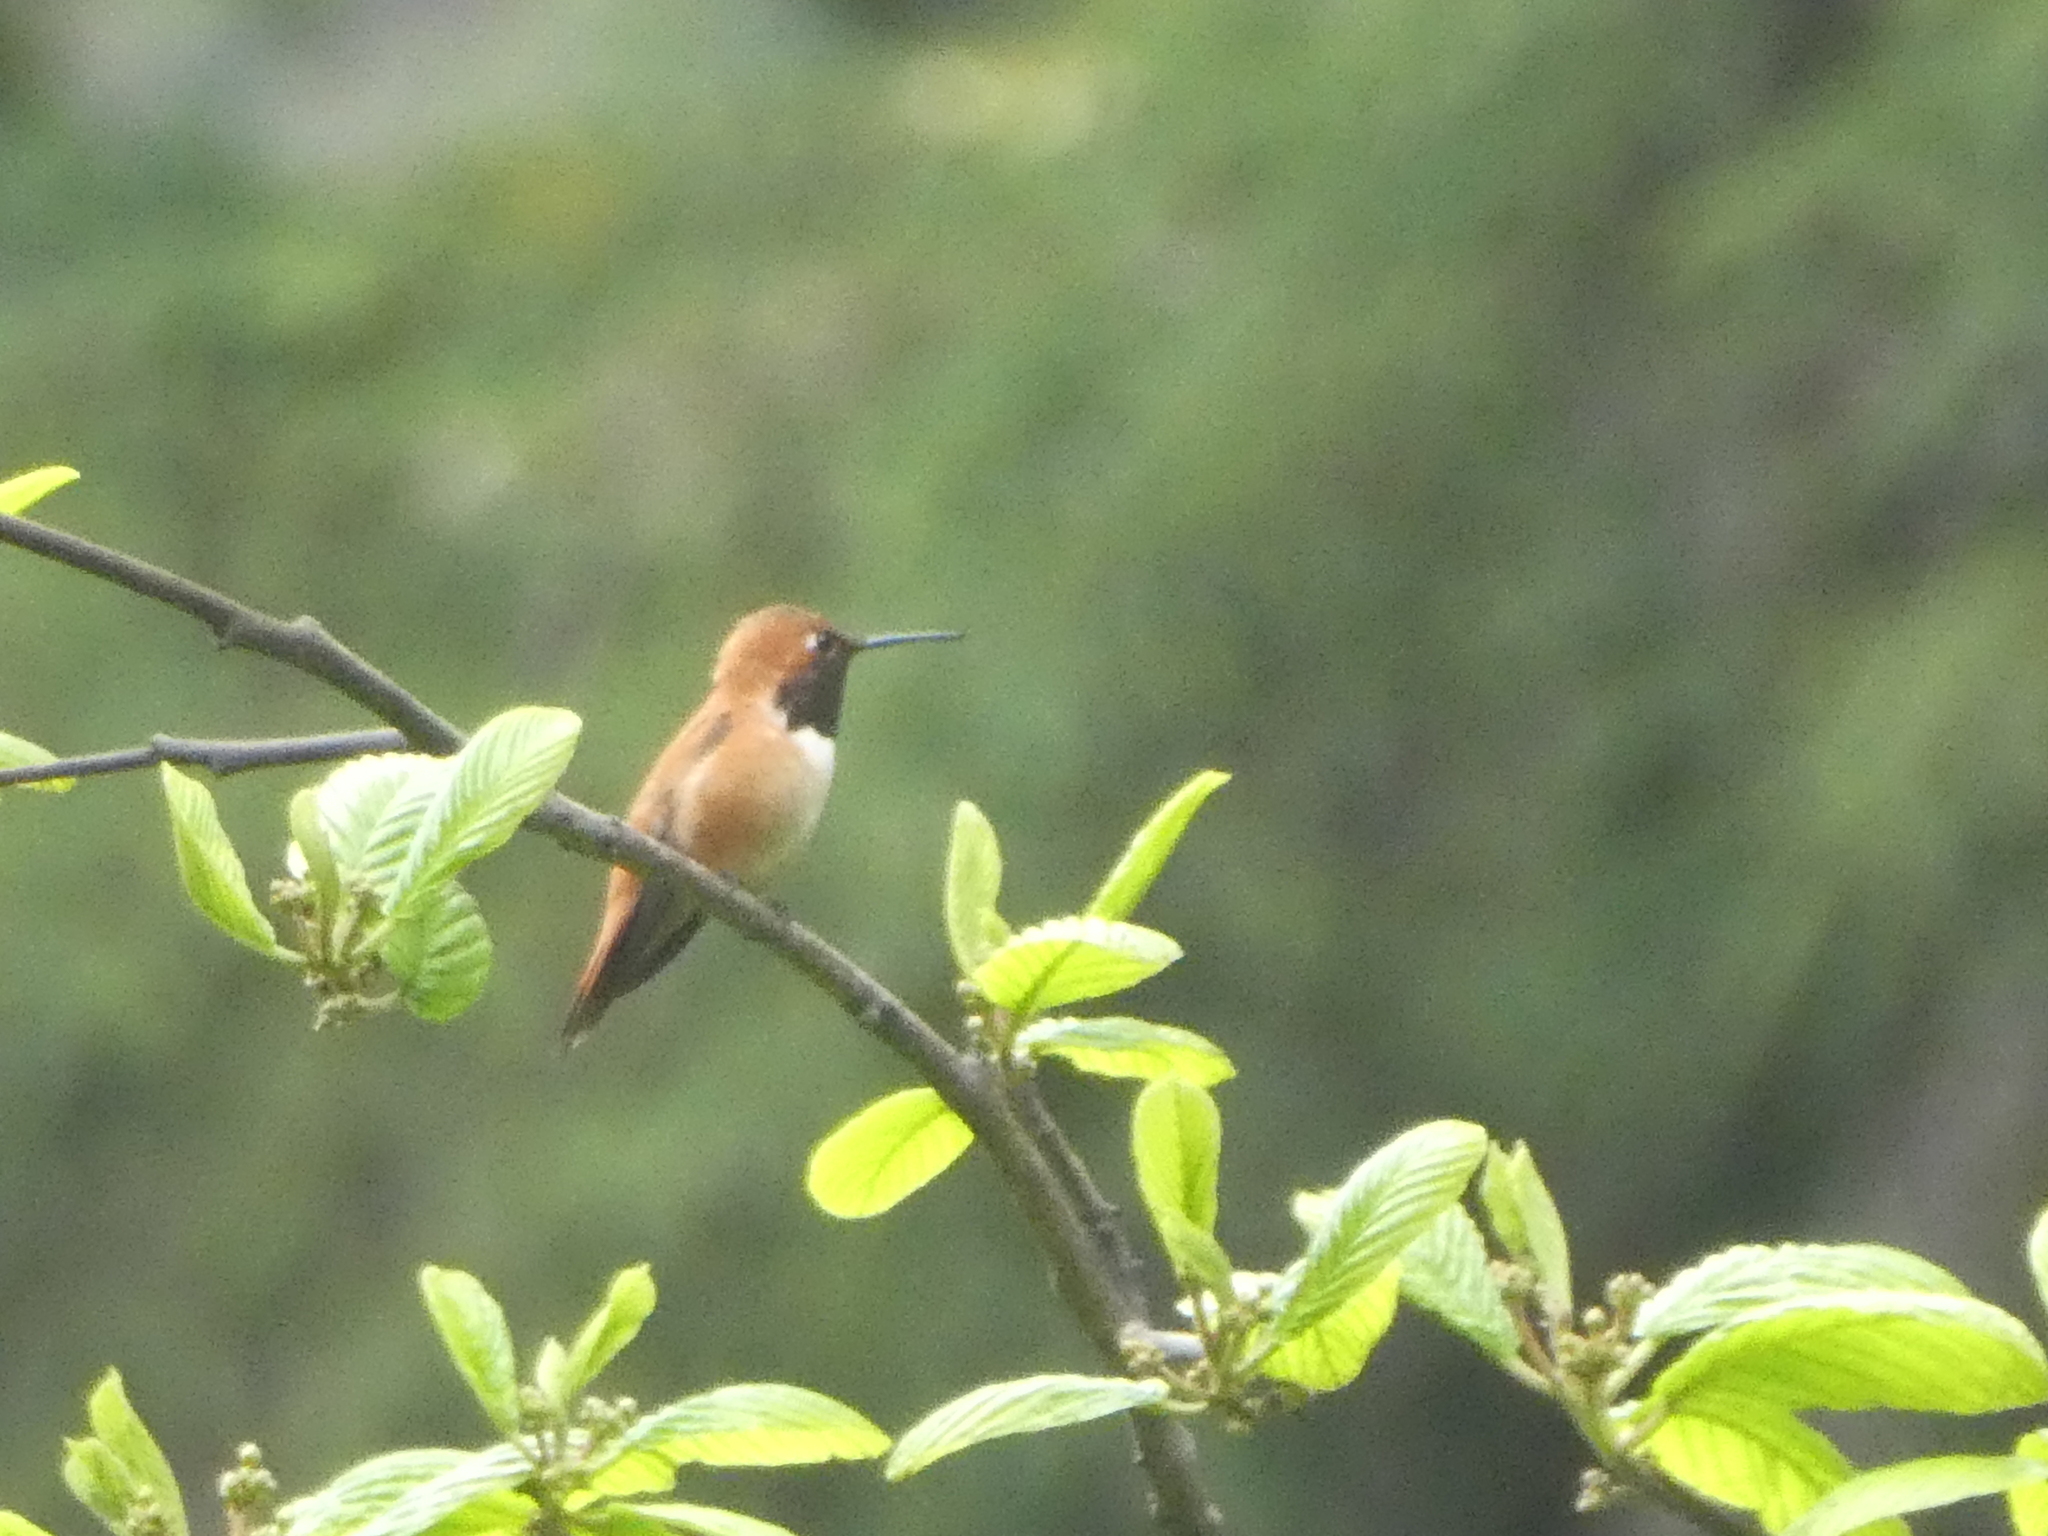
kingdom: Animalia
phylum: Chordata
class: Aves
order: Apodiformes
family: Trochilidae
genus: Selasphorus
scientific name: Selasphorus rufus
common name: Rufous hummingbird
